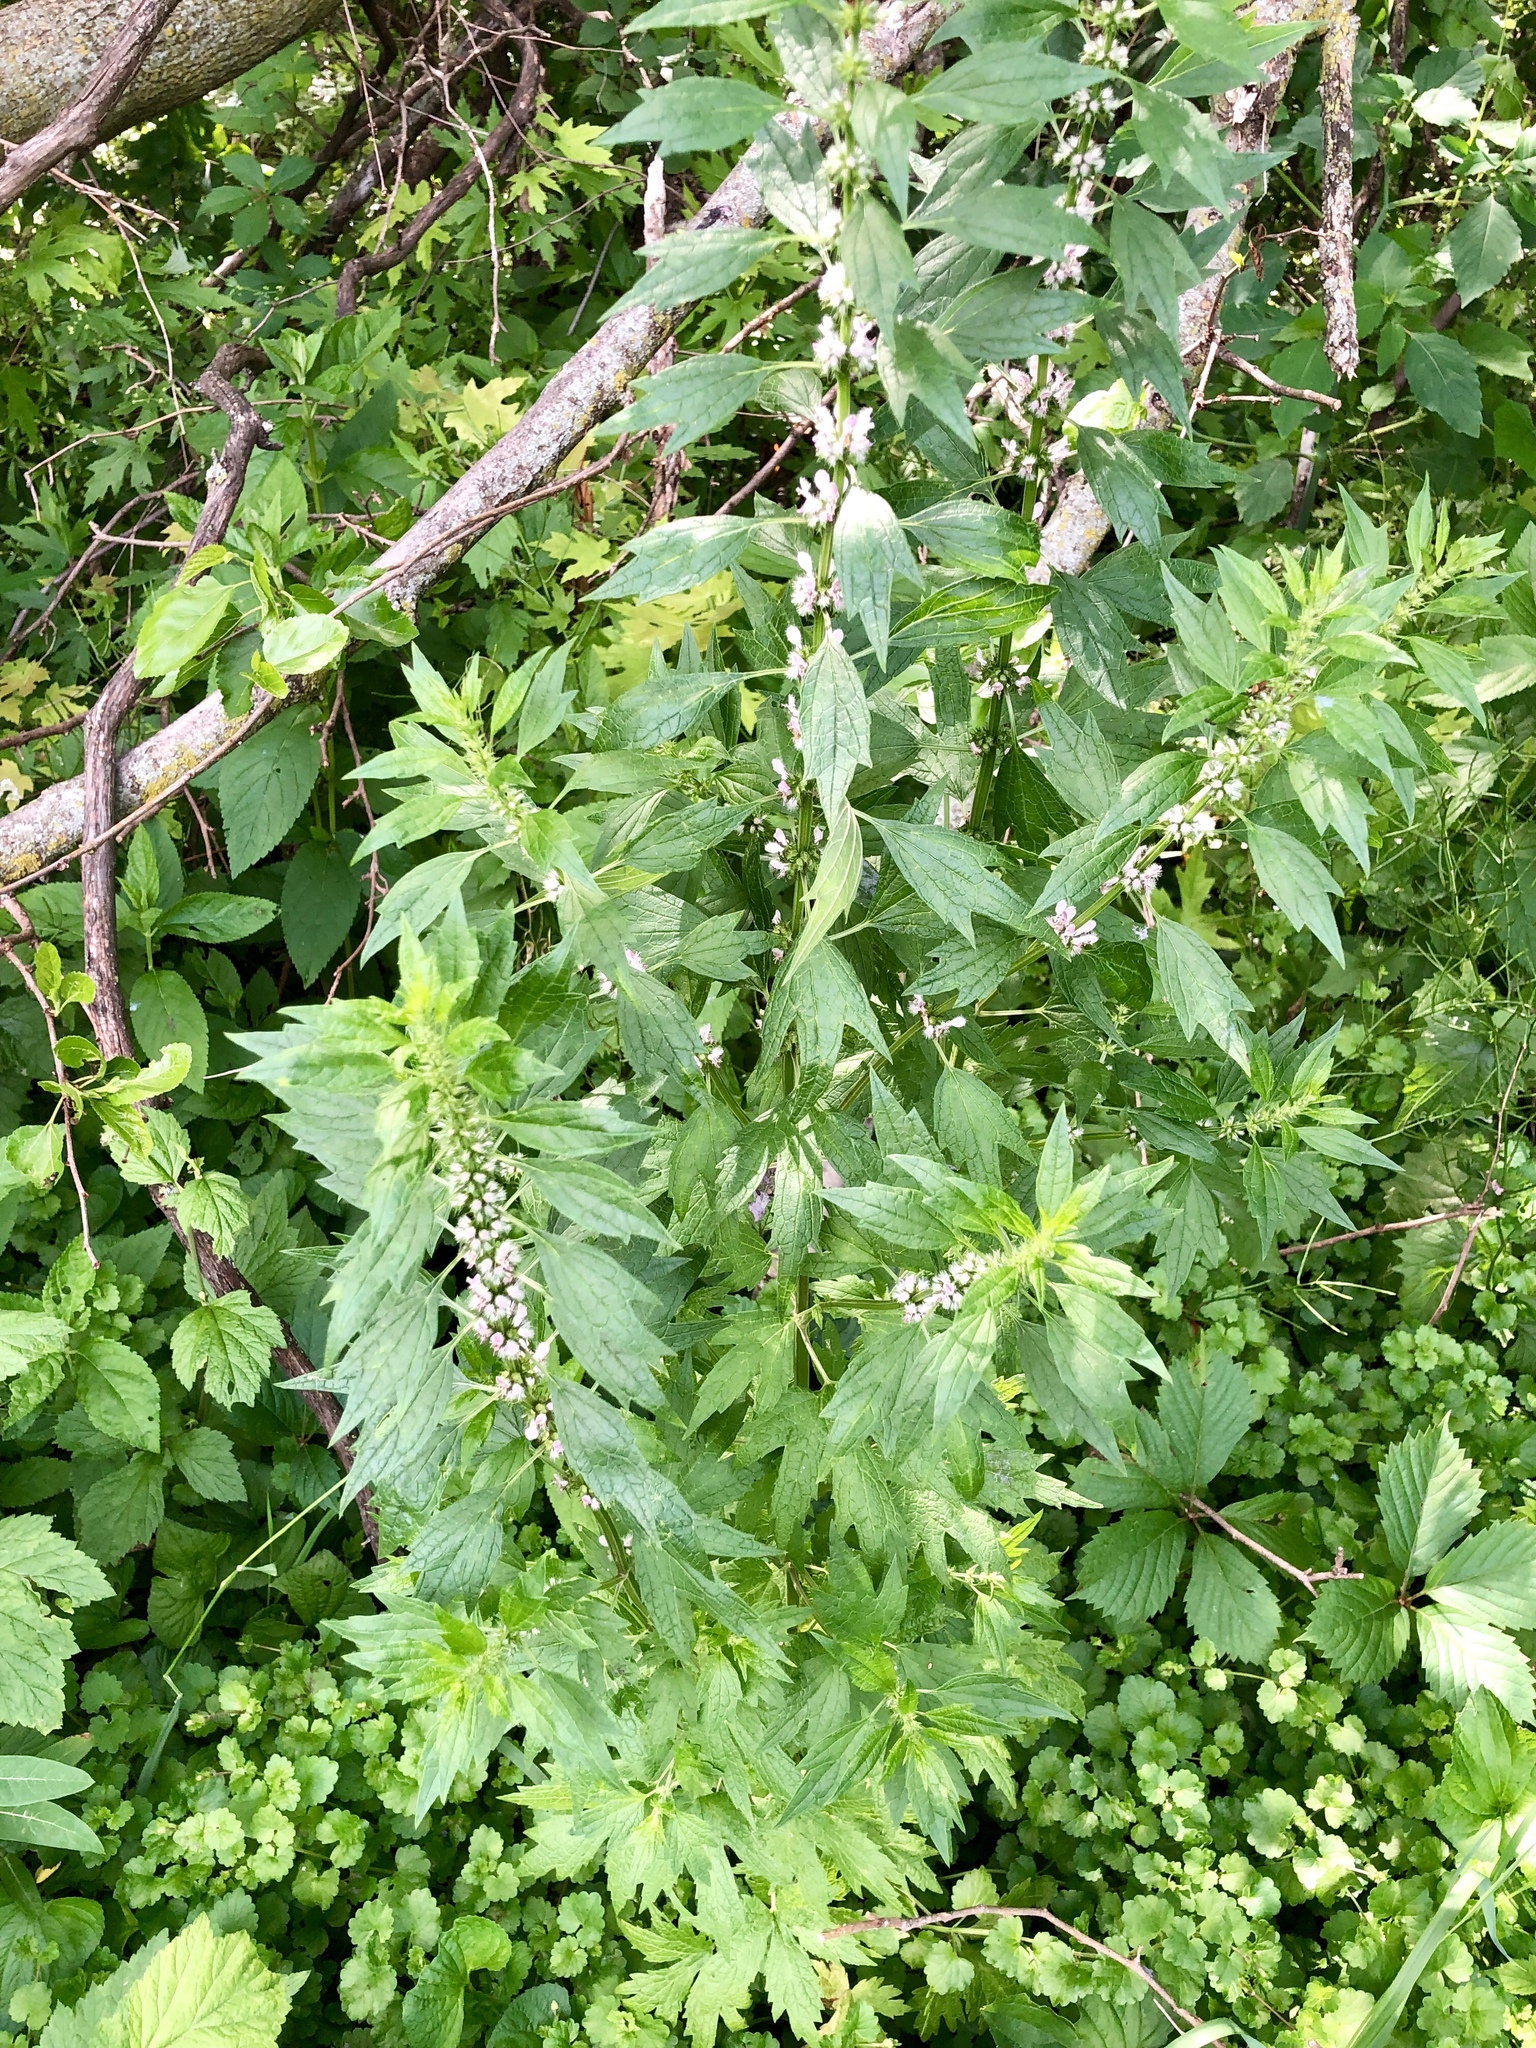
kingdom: Plantae
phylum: Tracheophyta
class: Magnoliopsida
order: Lamiales
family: Lamiaceae
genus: Leonurus
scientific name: Leonurus cardiaca
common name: Motherwort
